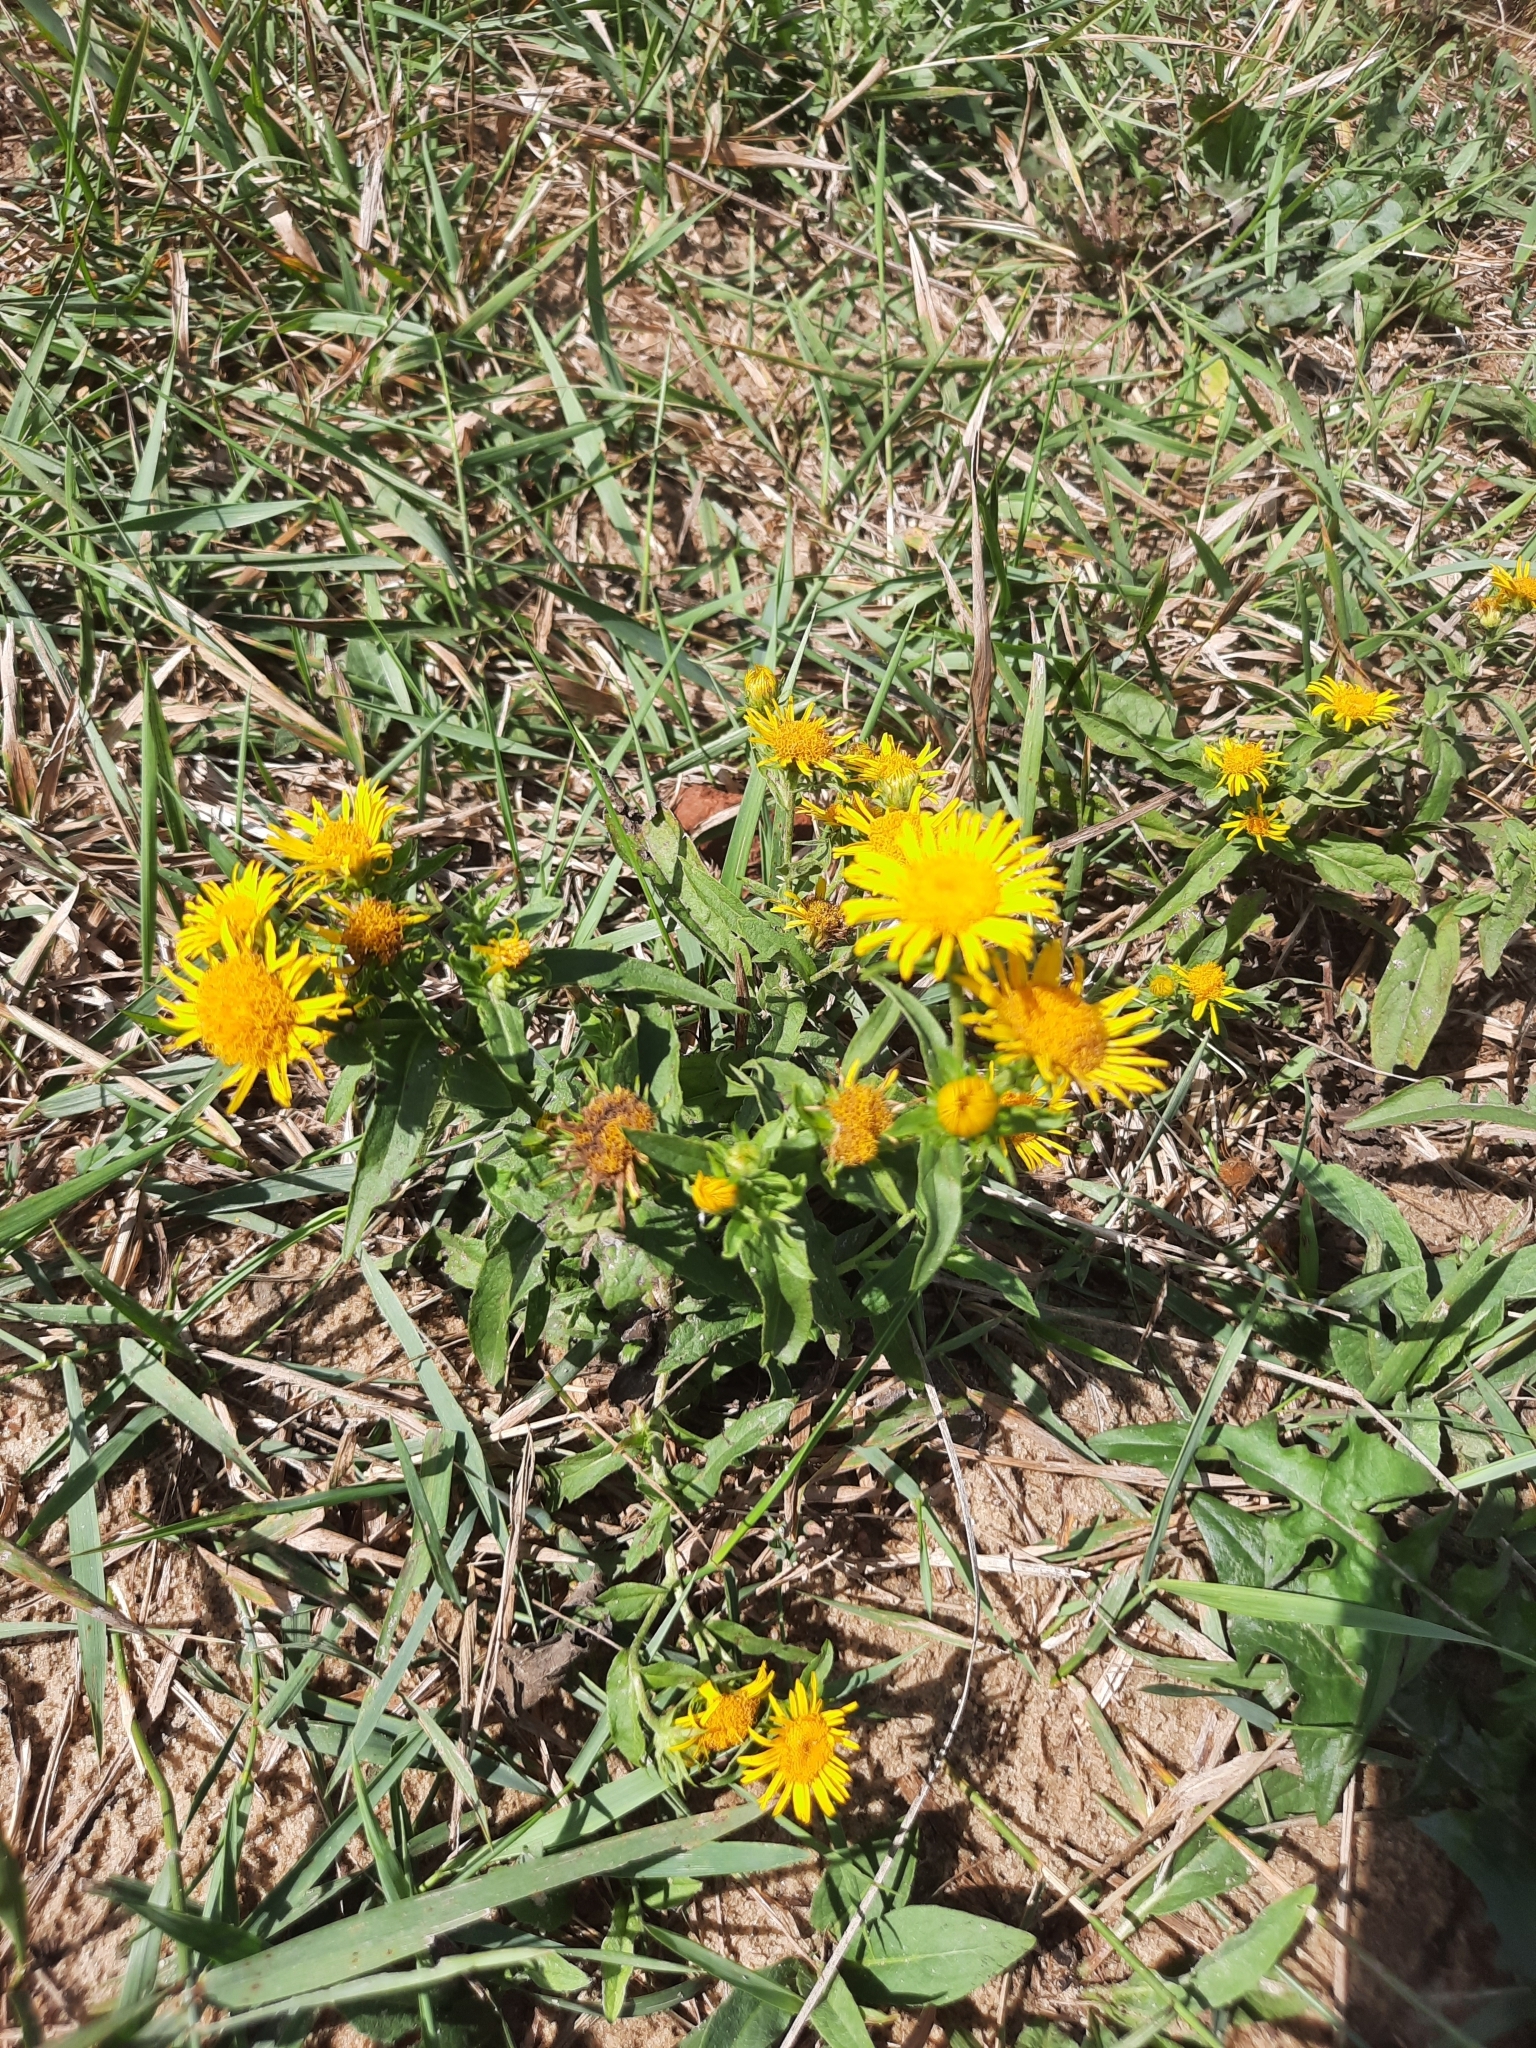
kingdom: Plantae
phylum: Tracheophyta
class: Magnoliopsida
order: Asterales
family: Asteraceae
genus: Pentanema
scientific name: Pentanema britannicum
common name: British elecampane
